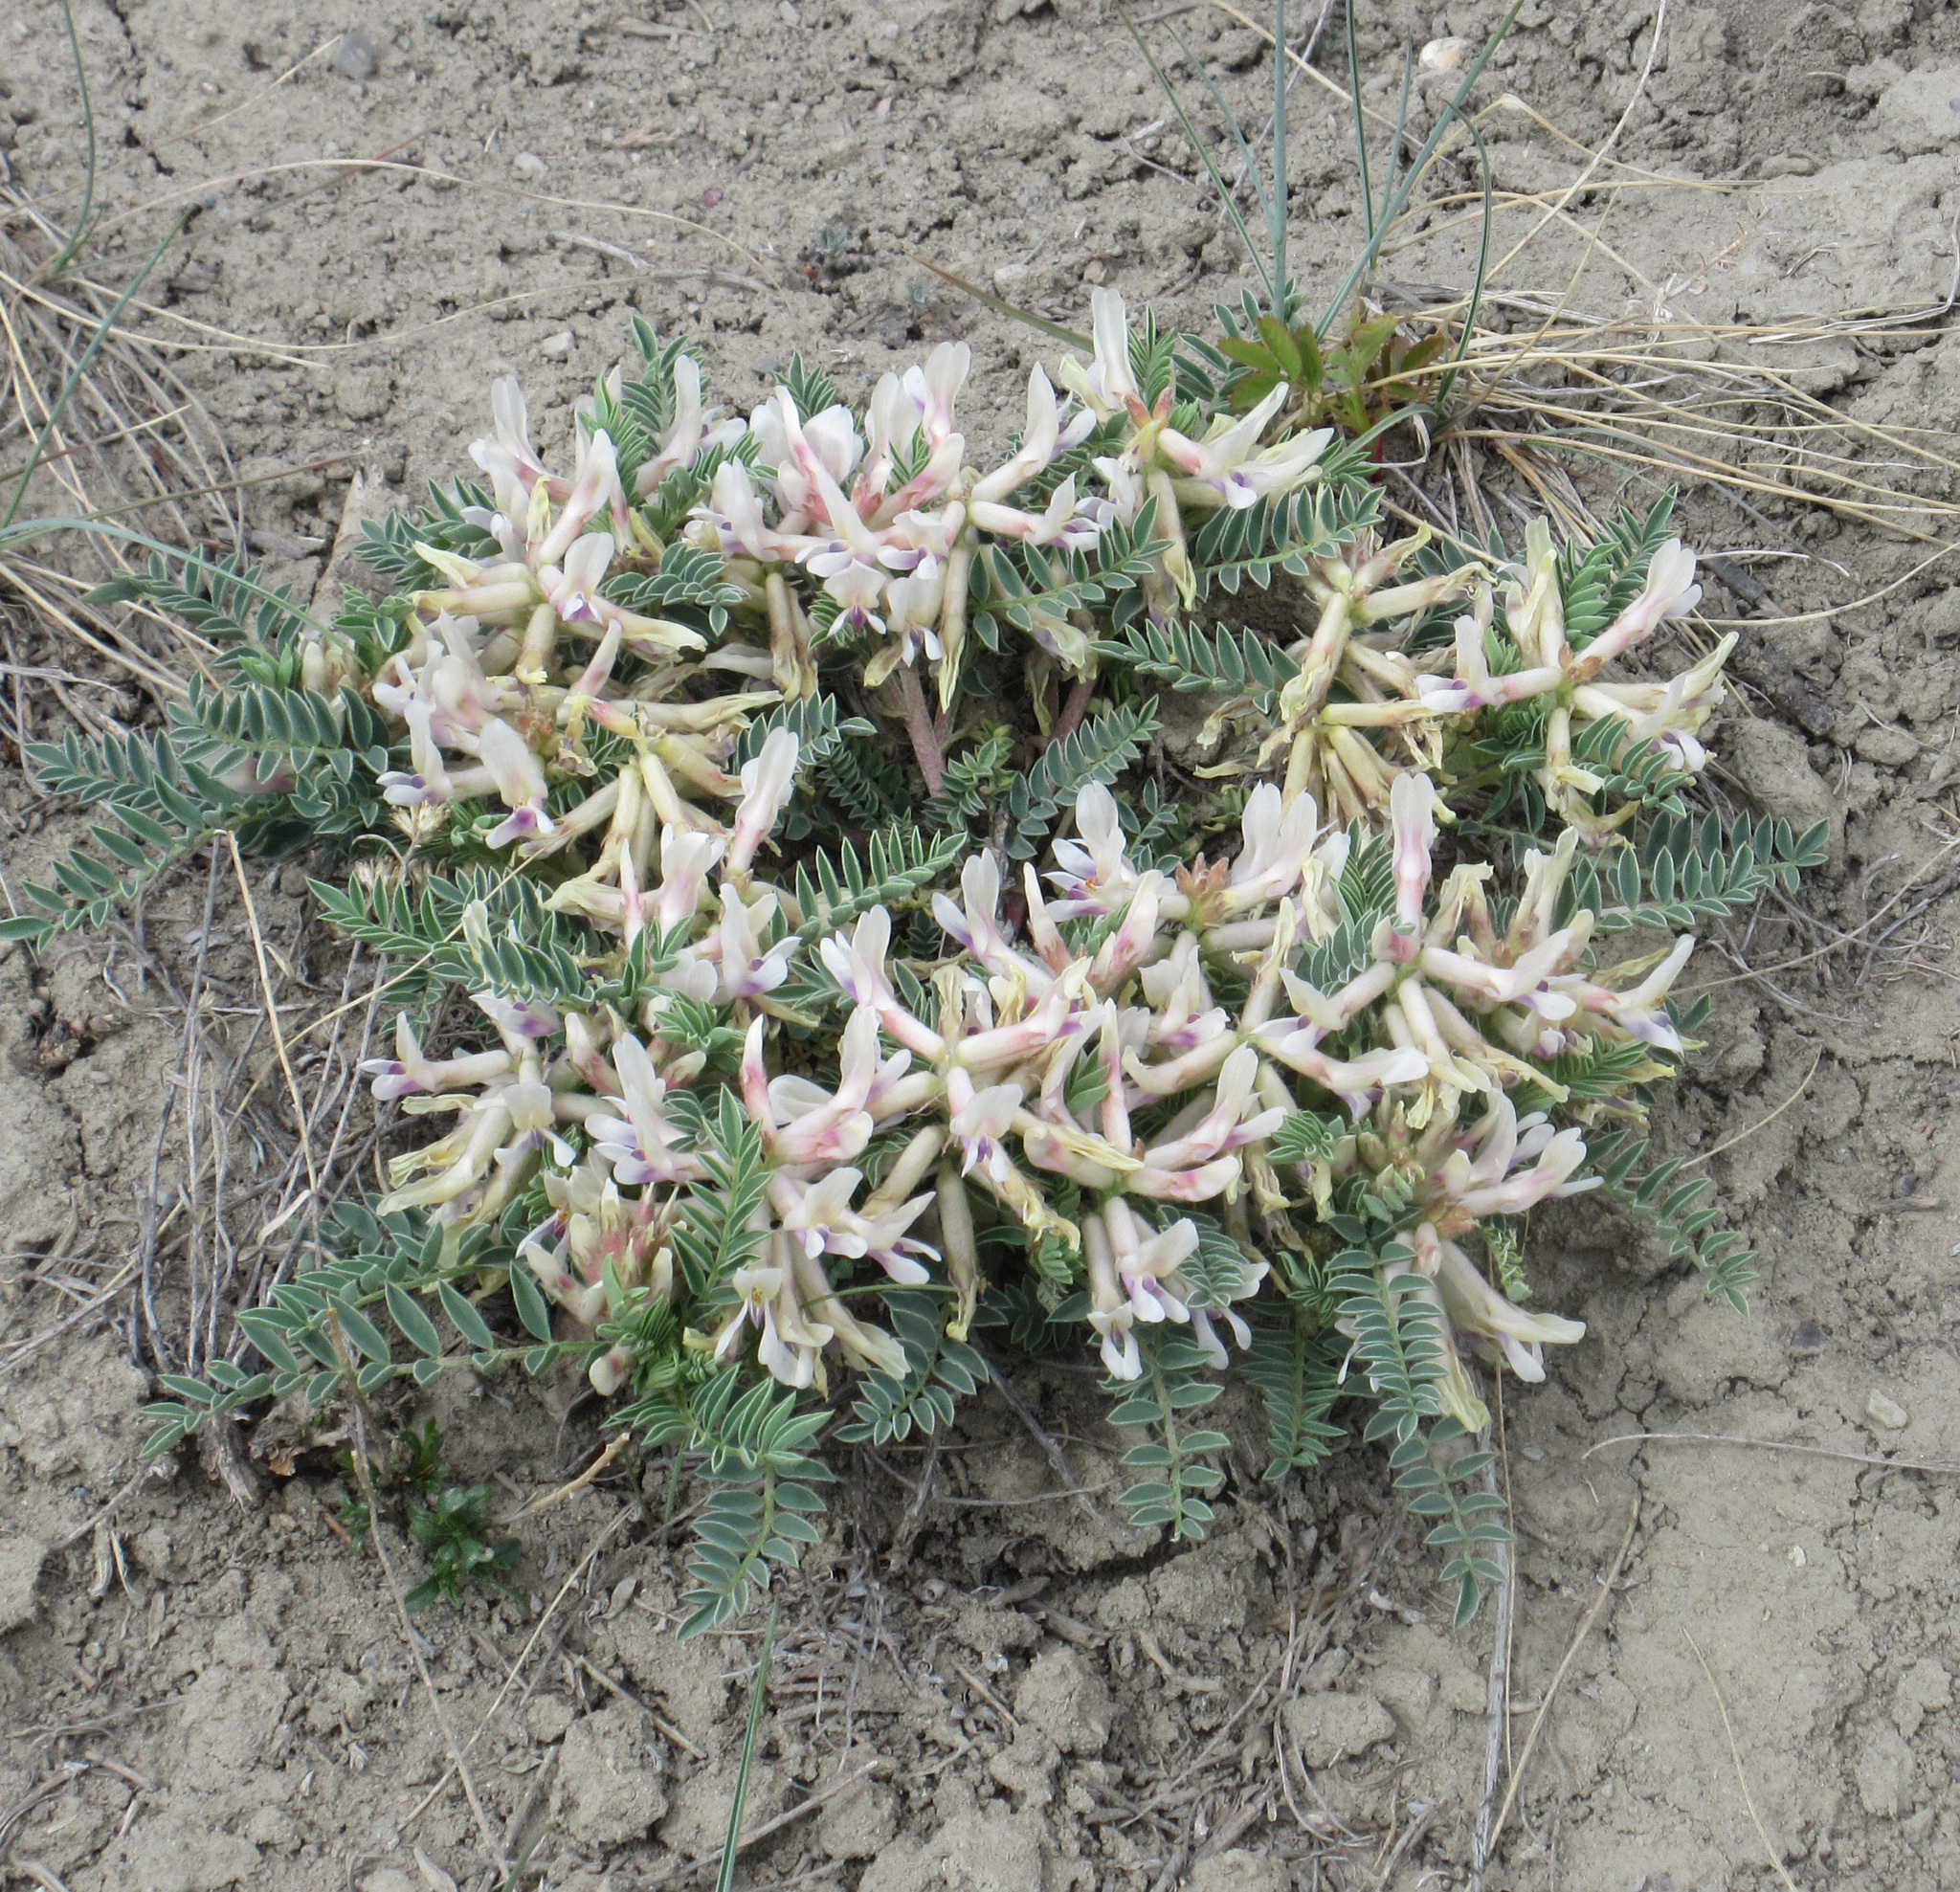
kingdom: Plantae
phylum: Tracheophyta
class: Magnoliopsida
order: Fabales
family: Fabaceae
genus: Astragalus
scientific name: Astragalus crassicarpus
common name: Ground-plum milk-vetch
